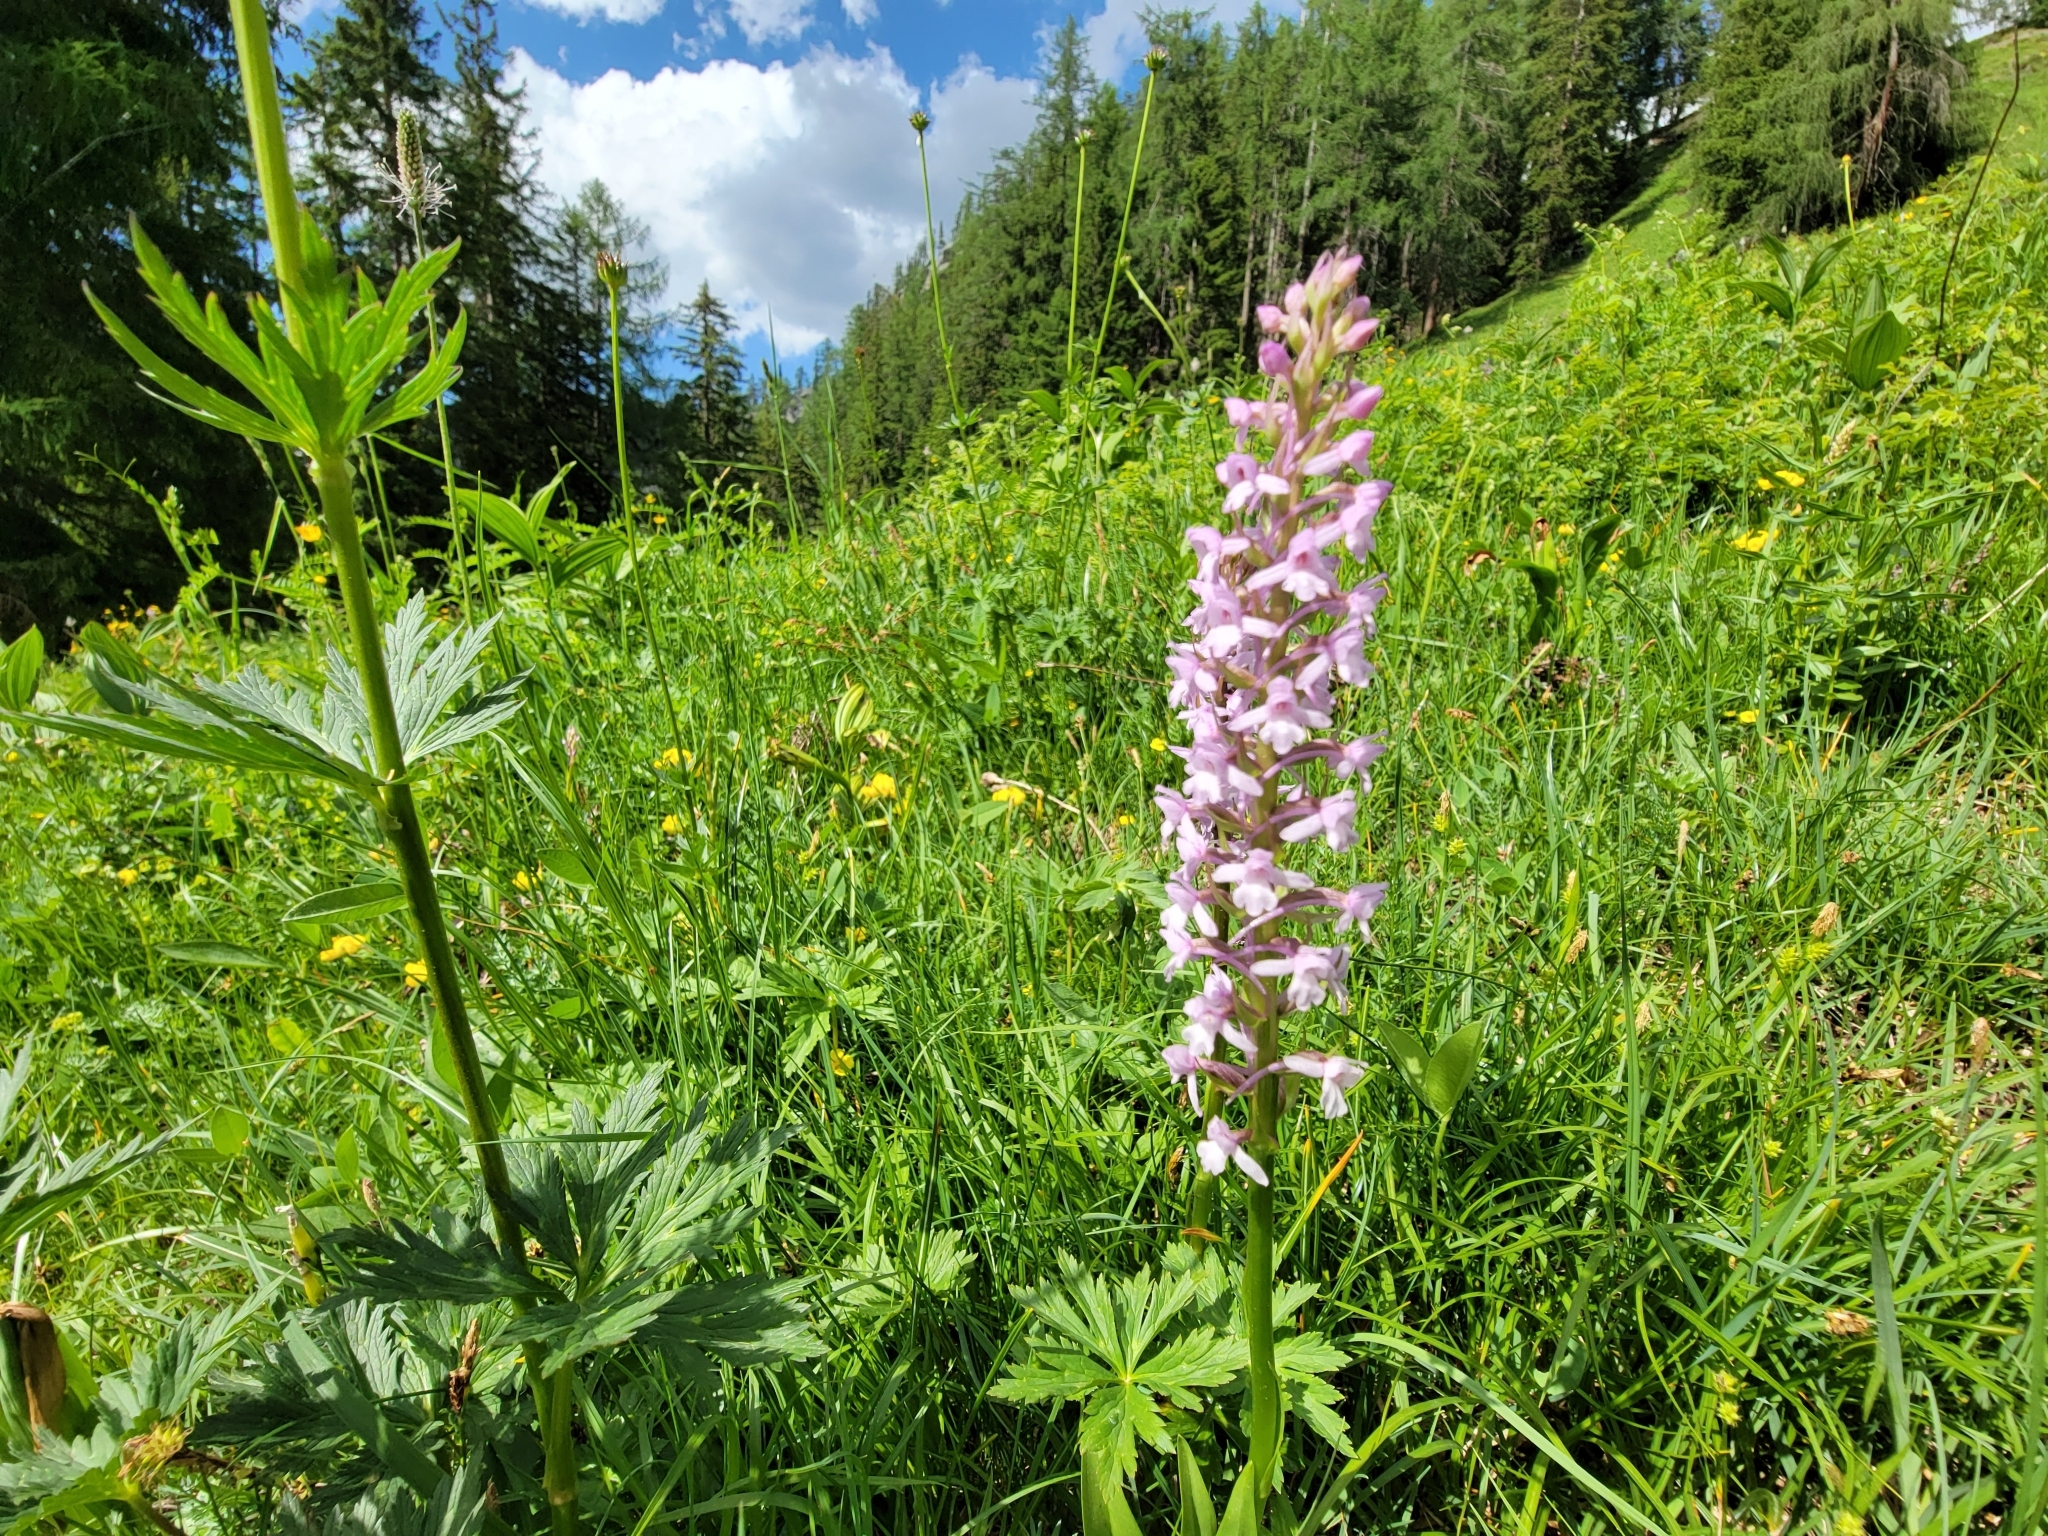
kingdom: Plantae
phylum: Tracheophyta
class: Liliopsida
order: Asparagales
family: Orchidaceae
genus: Gymnadenia
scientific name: Gymnadenia conopsea
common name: Fragrant orchid
